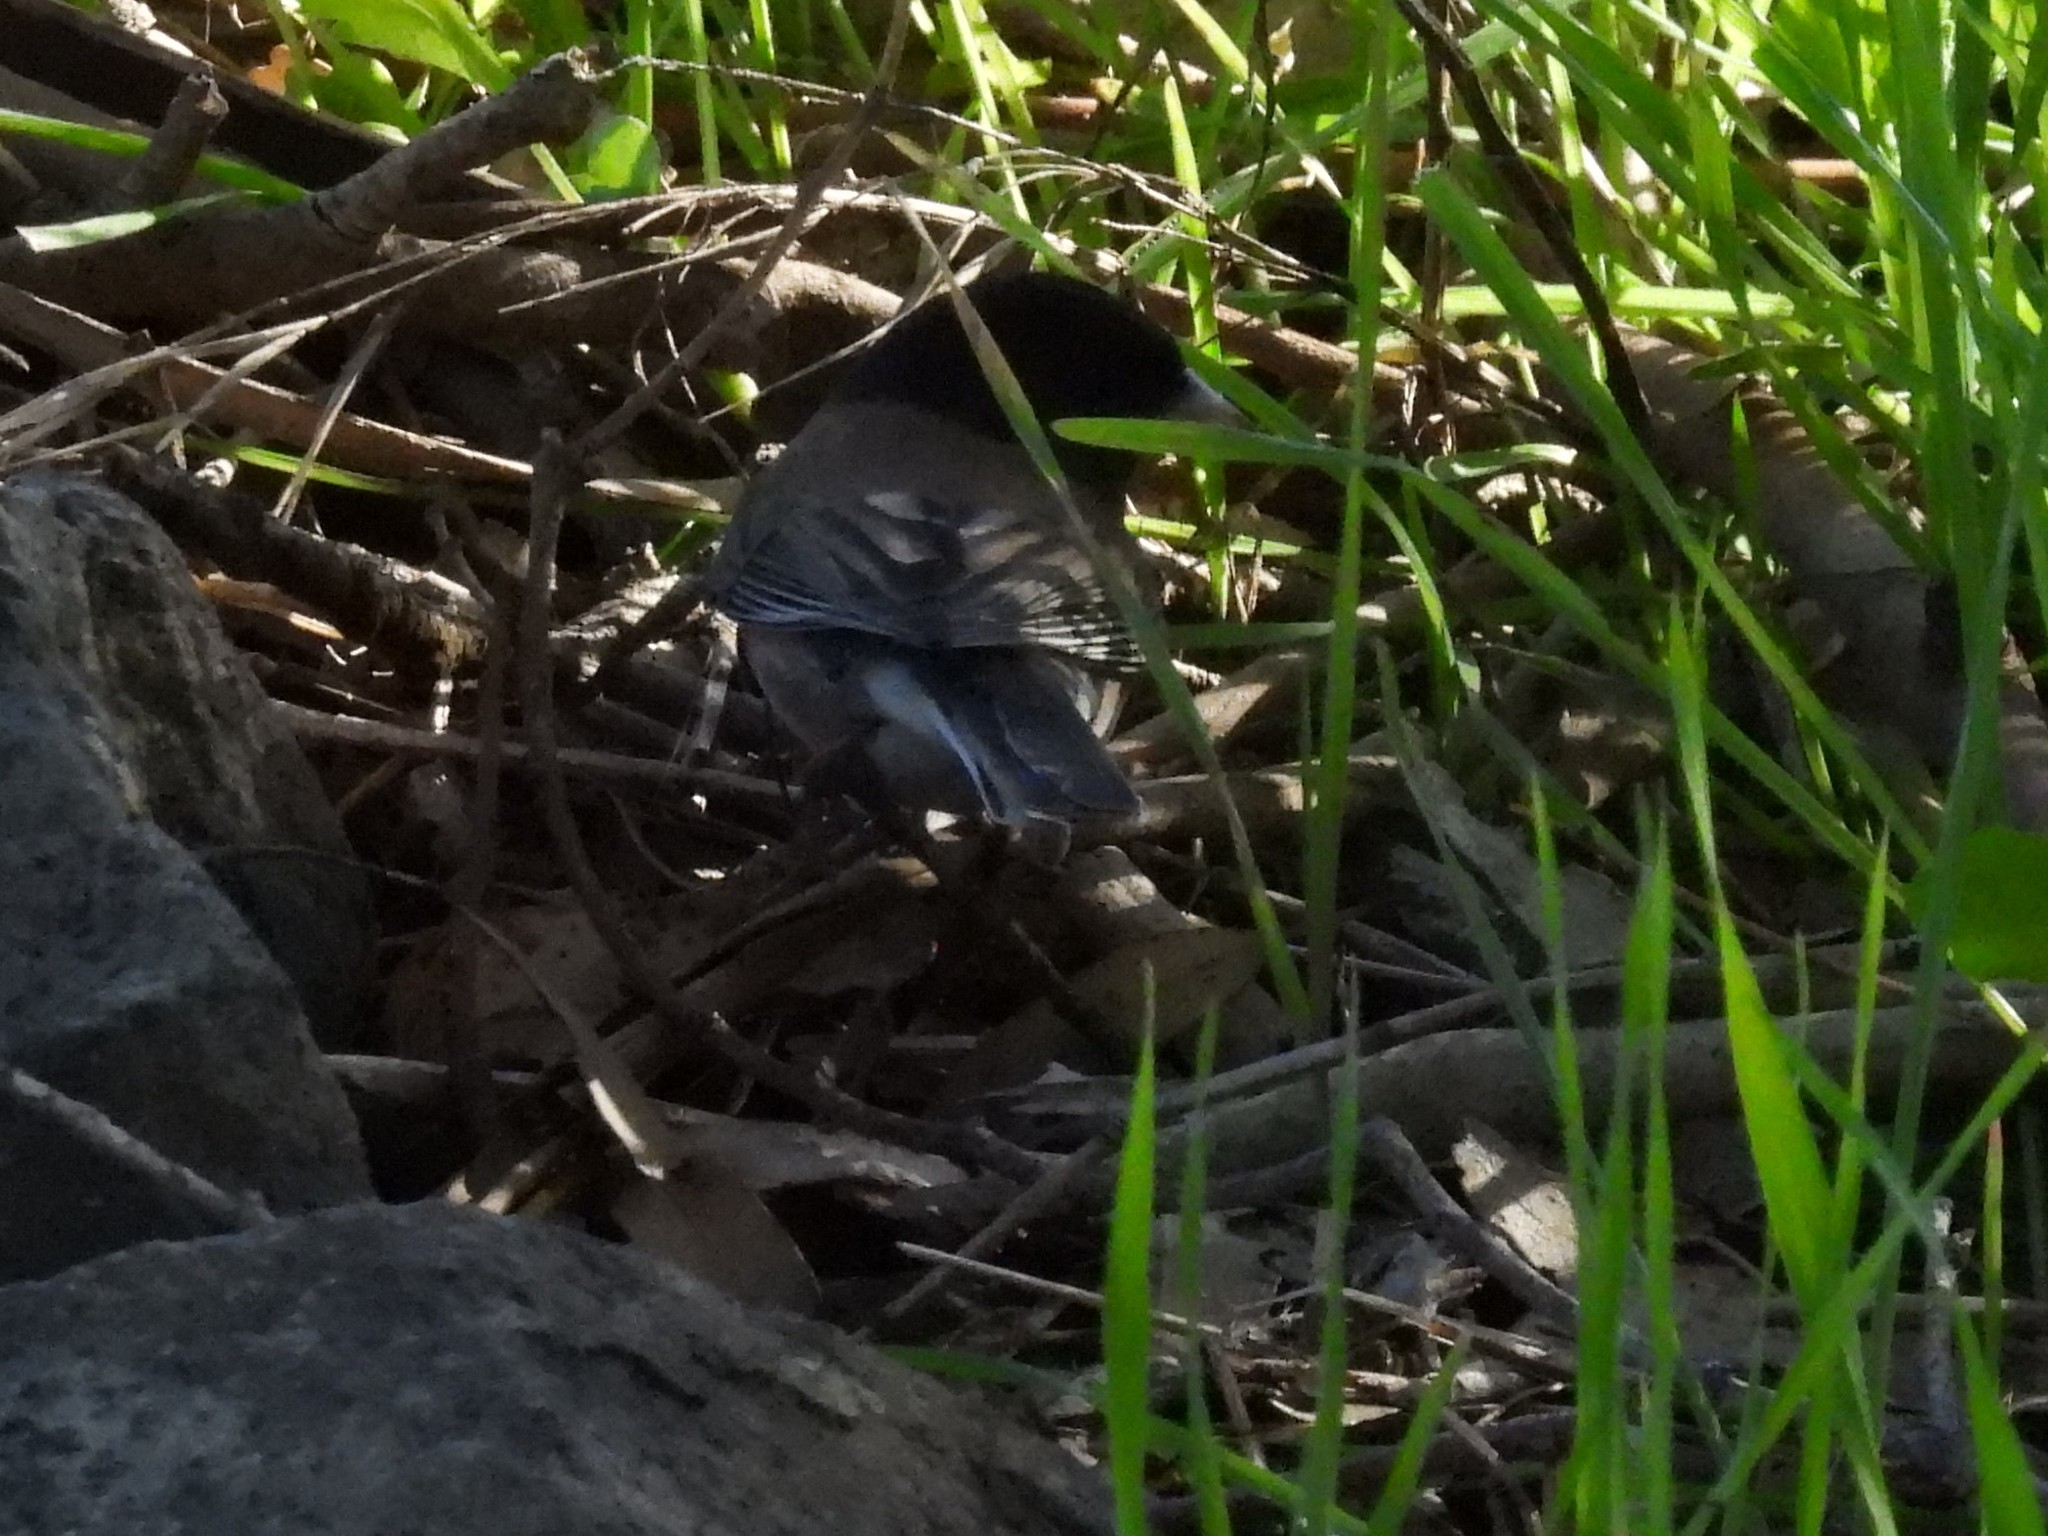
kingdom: Animalia
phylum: Chordata
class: Aves
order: Passeriformes
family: Passerellidae
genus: Junco
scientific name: Junco hyemalis
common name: Dark-eyed junco
